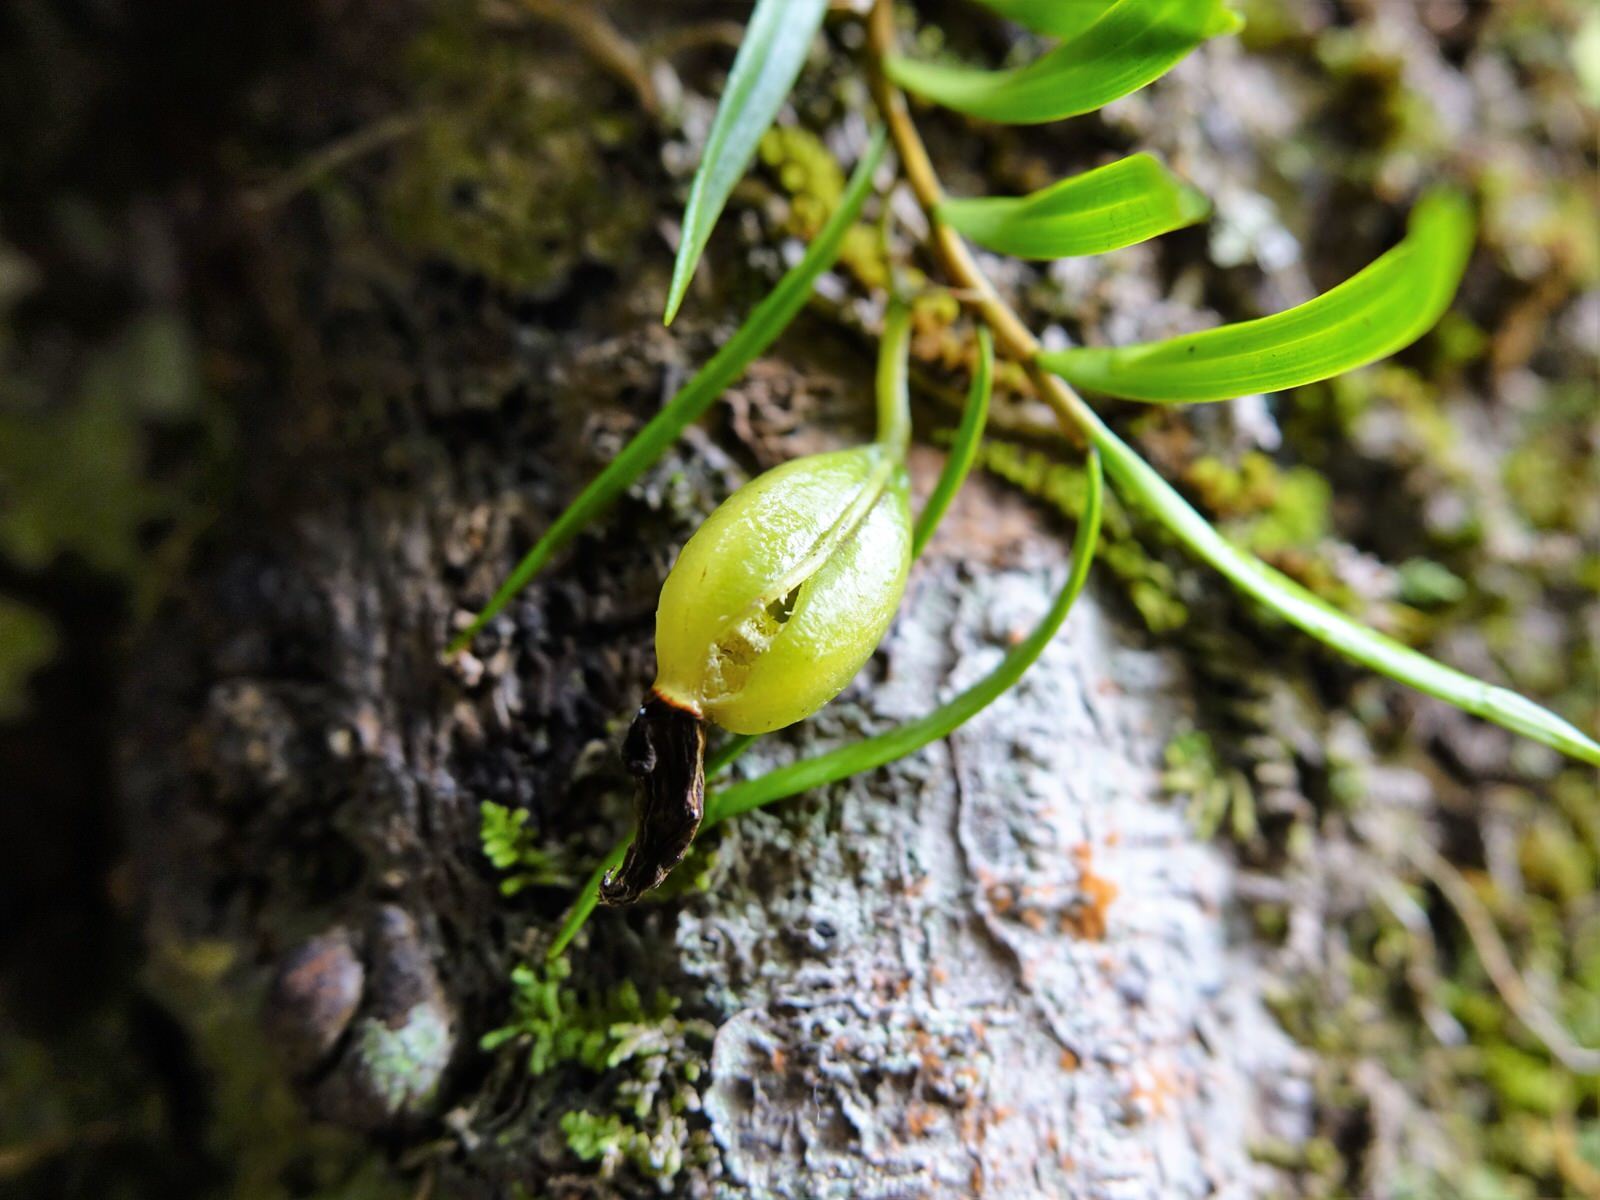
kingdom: Plantae
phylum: Tracheophyta
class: Liliopsida
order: Asparagales
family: Orchidaceae
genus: Dendrobium
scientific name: Dendrobium cunninghamii
